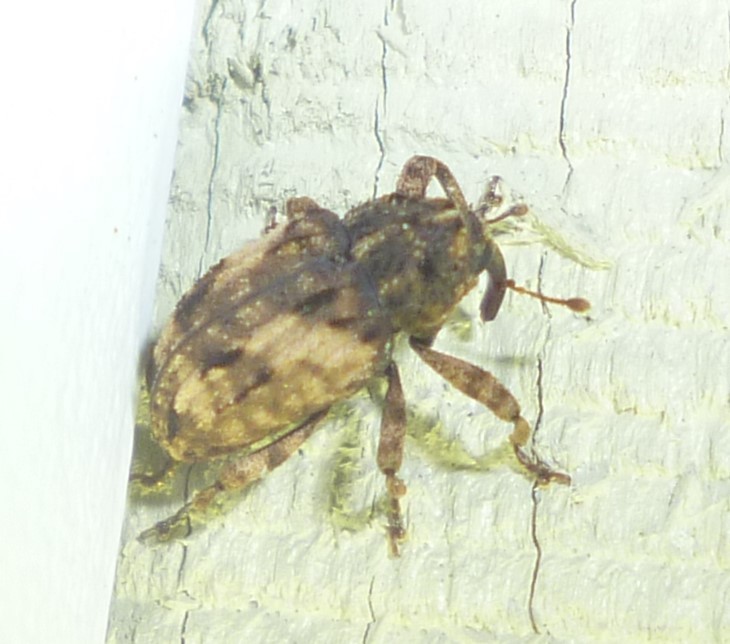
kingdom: Animalia
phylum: Arthropoda
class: Insecta
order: Coleoptera
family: Curculionidae
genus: Cryptorhynchus
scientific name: Cryptorhynchus fuscatus
